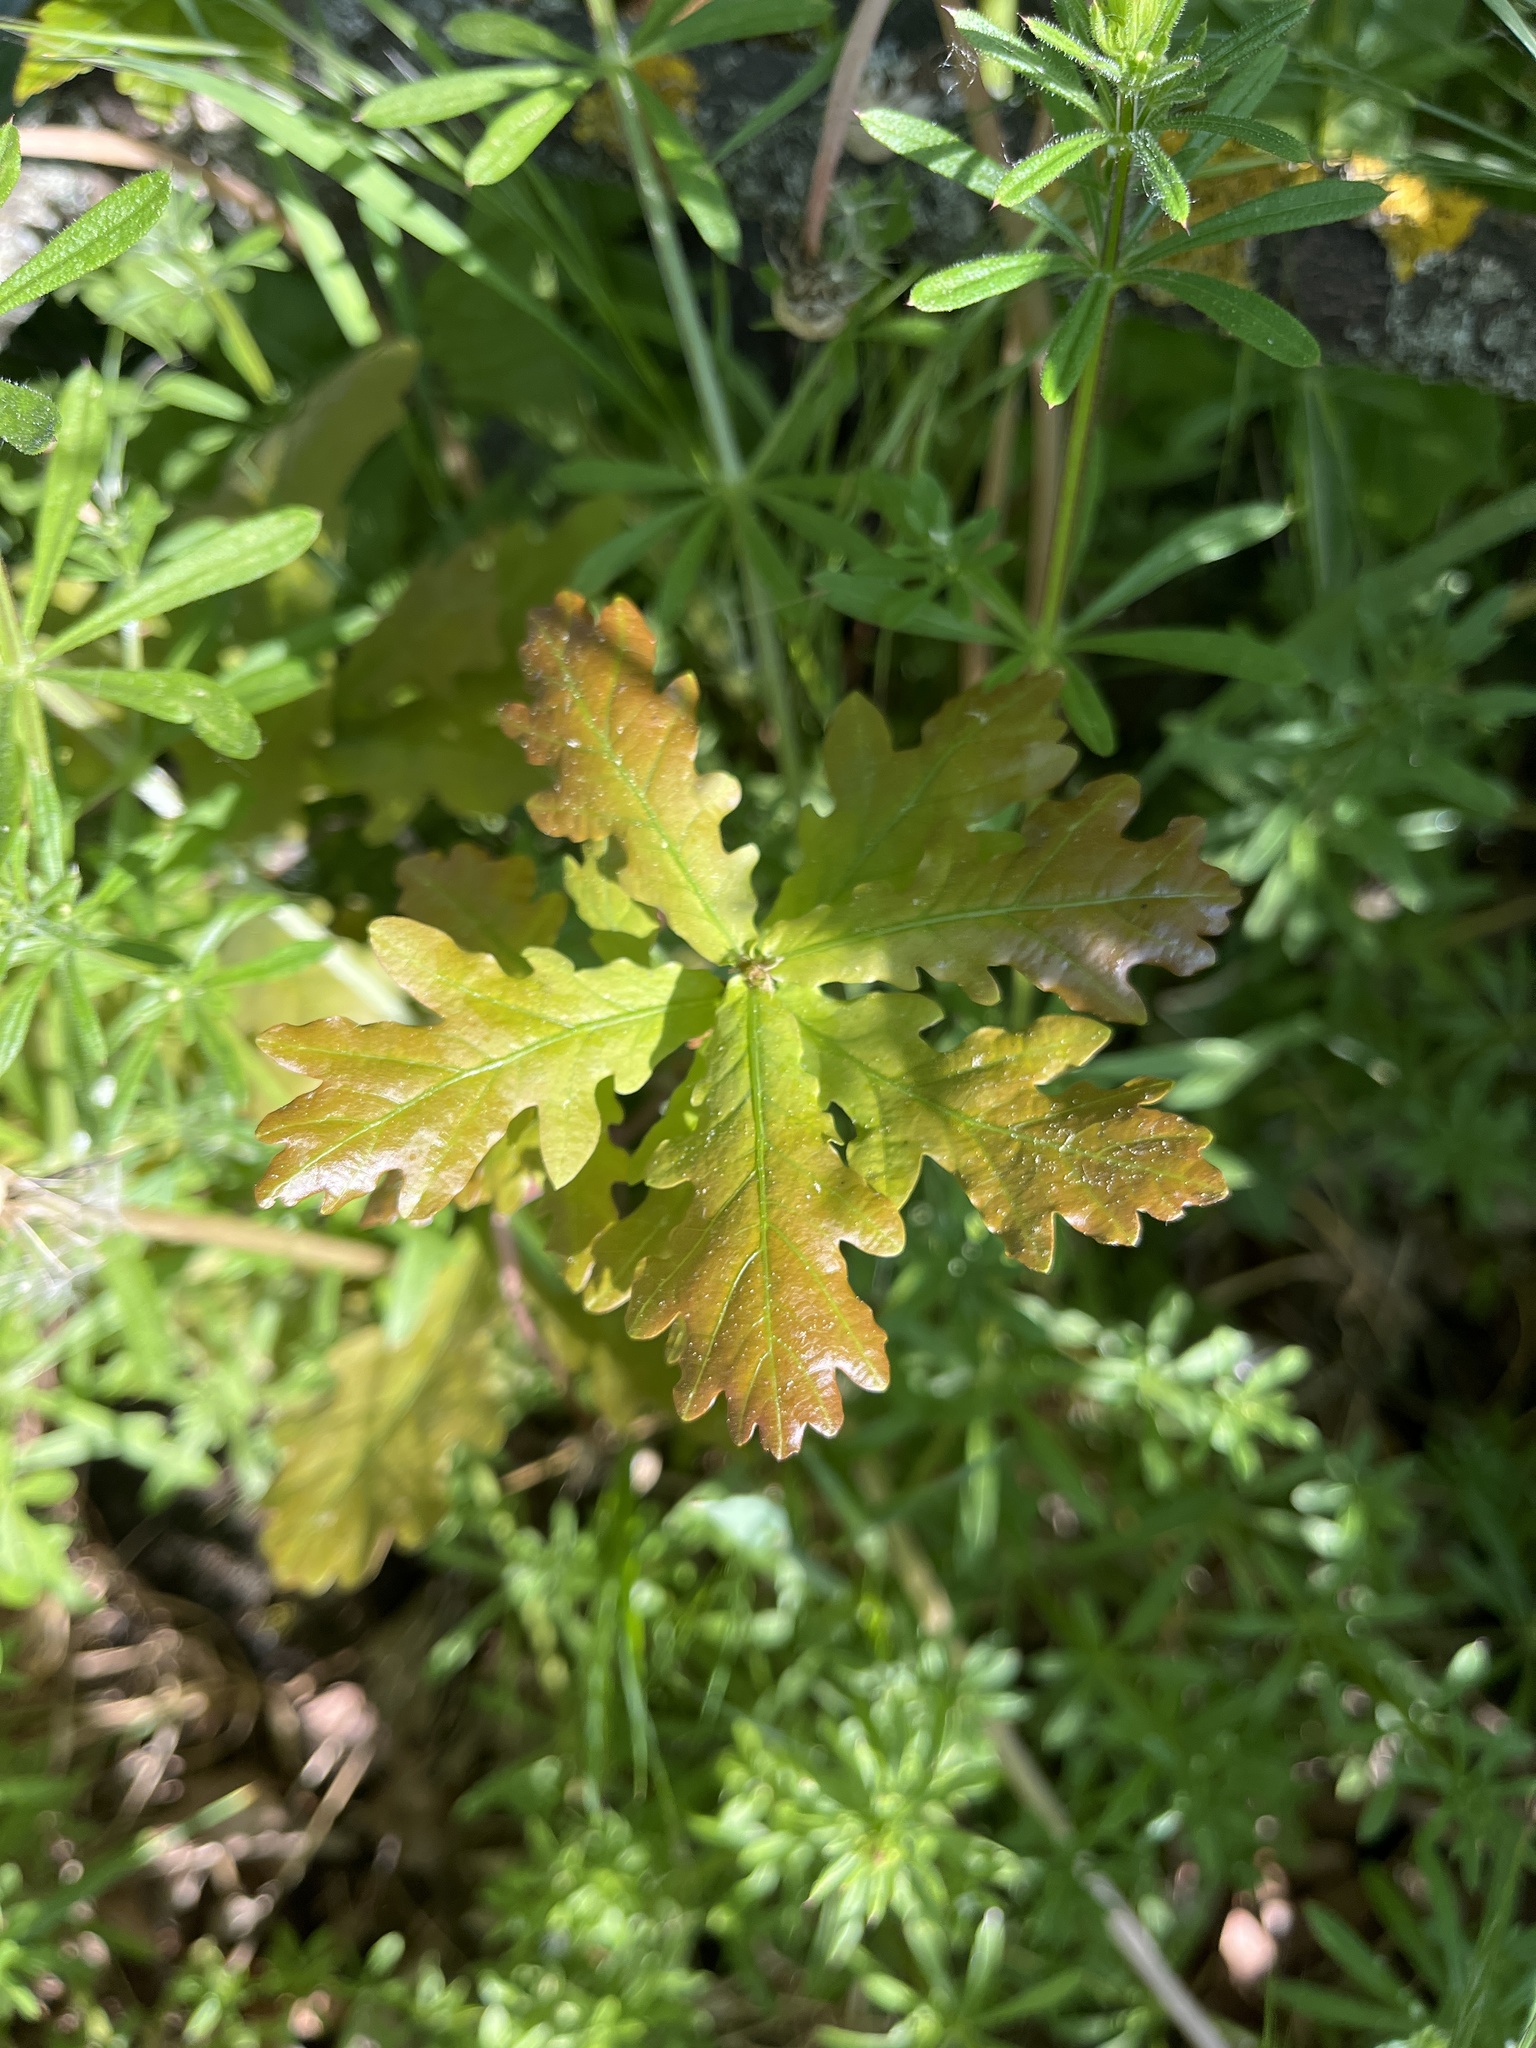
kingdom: Plantae
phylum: Tracheophyta
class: Magnoliopsida
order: Fagales
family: Fagaceae
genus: Quercus
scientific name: Quercus robur
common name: Pedunculate oak
